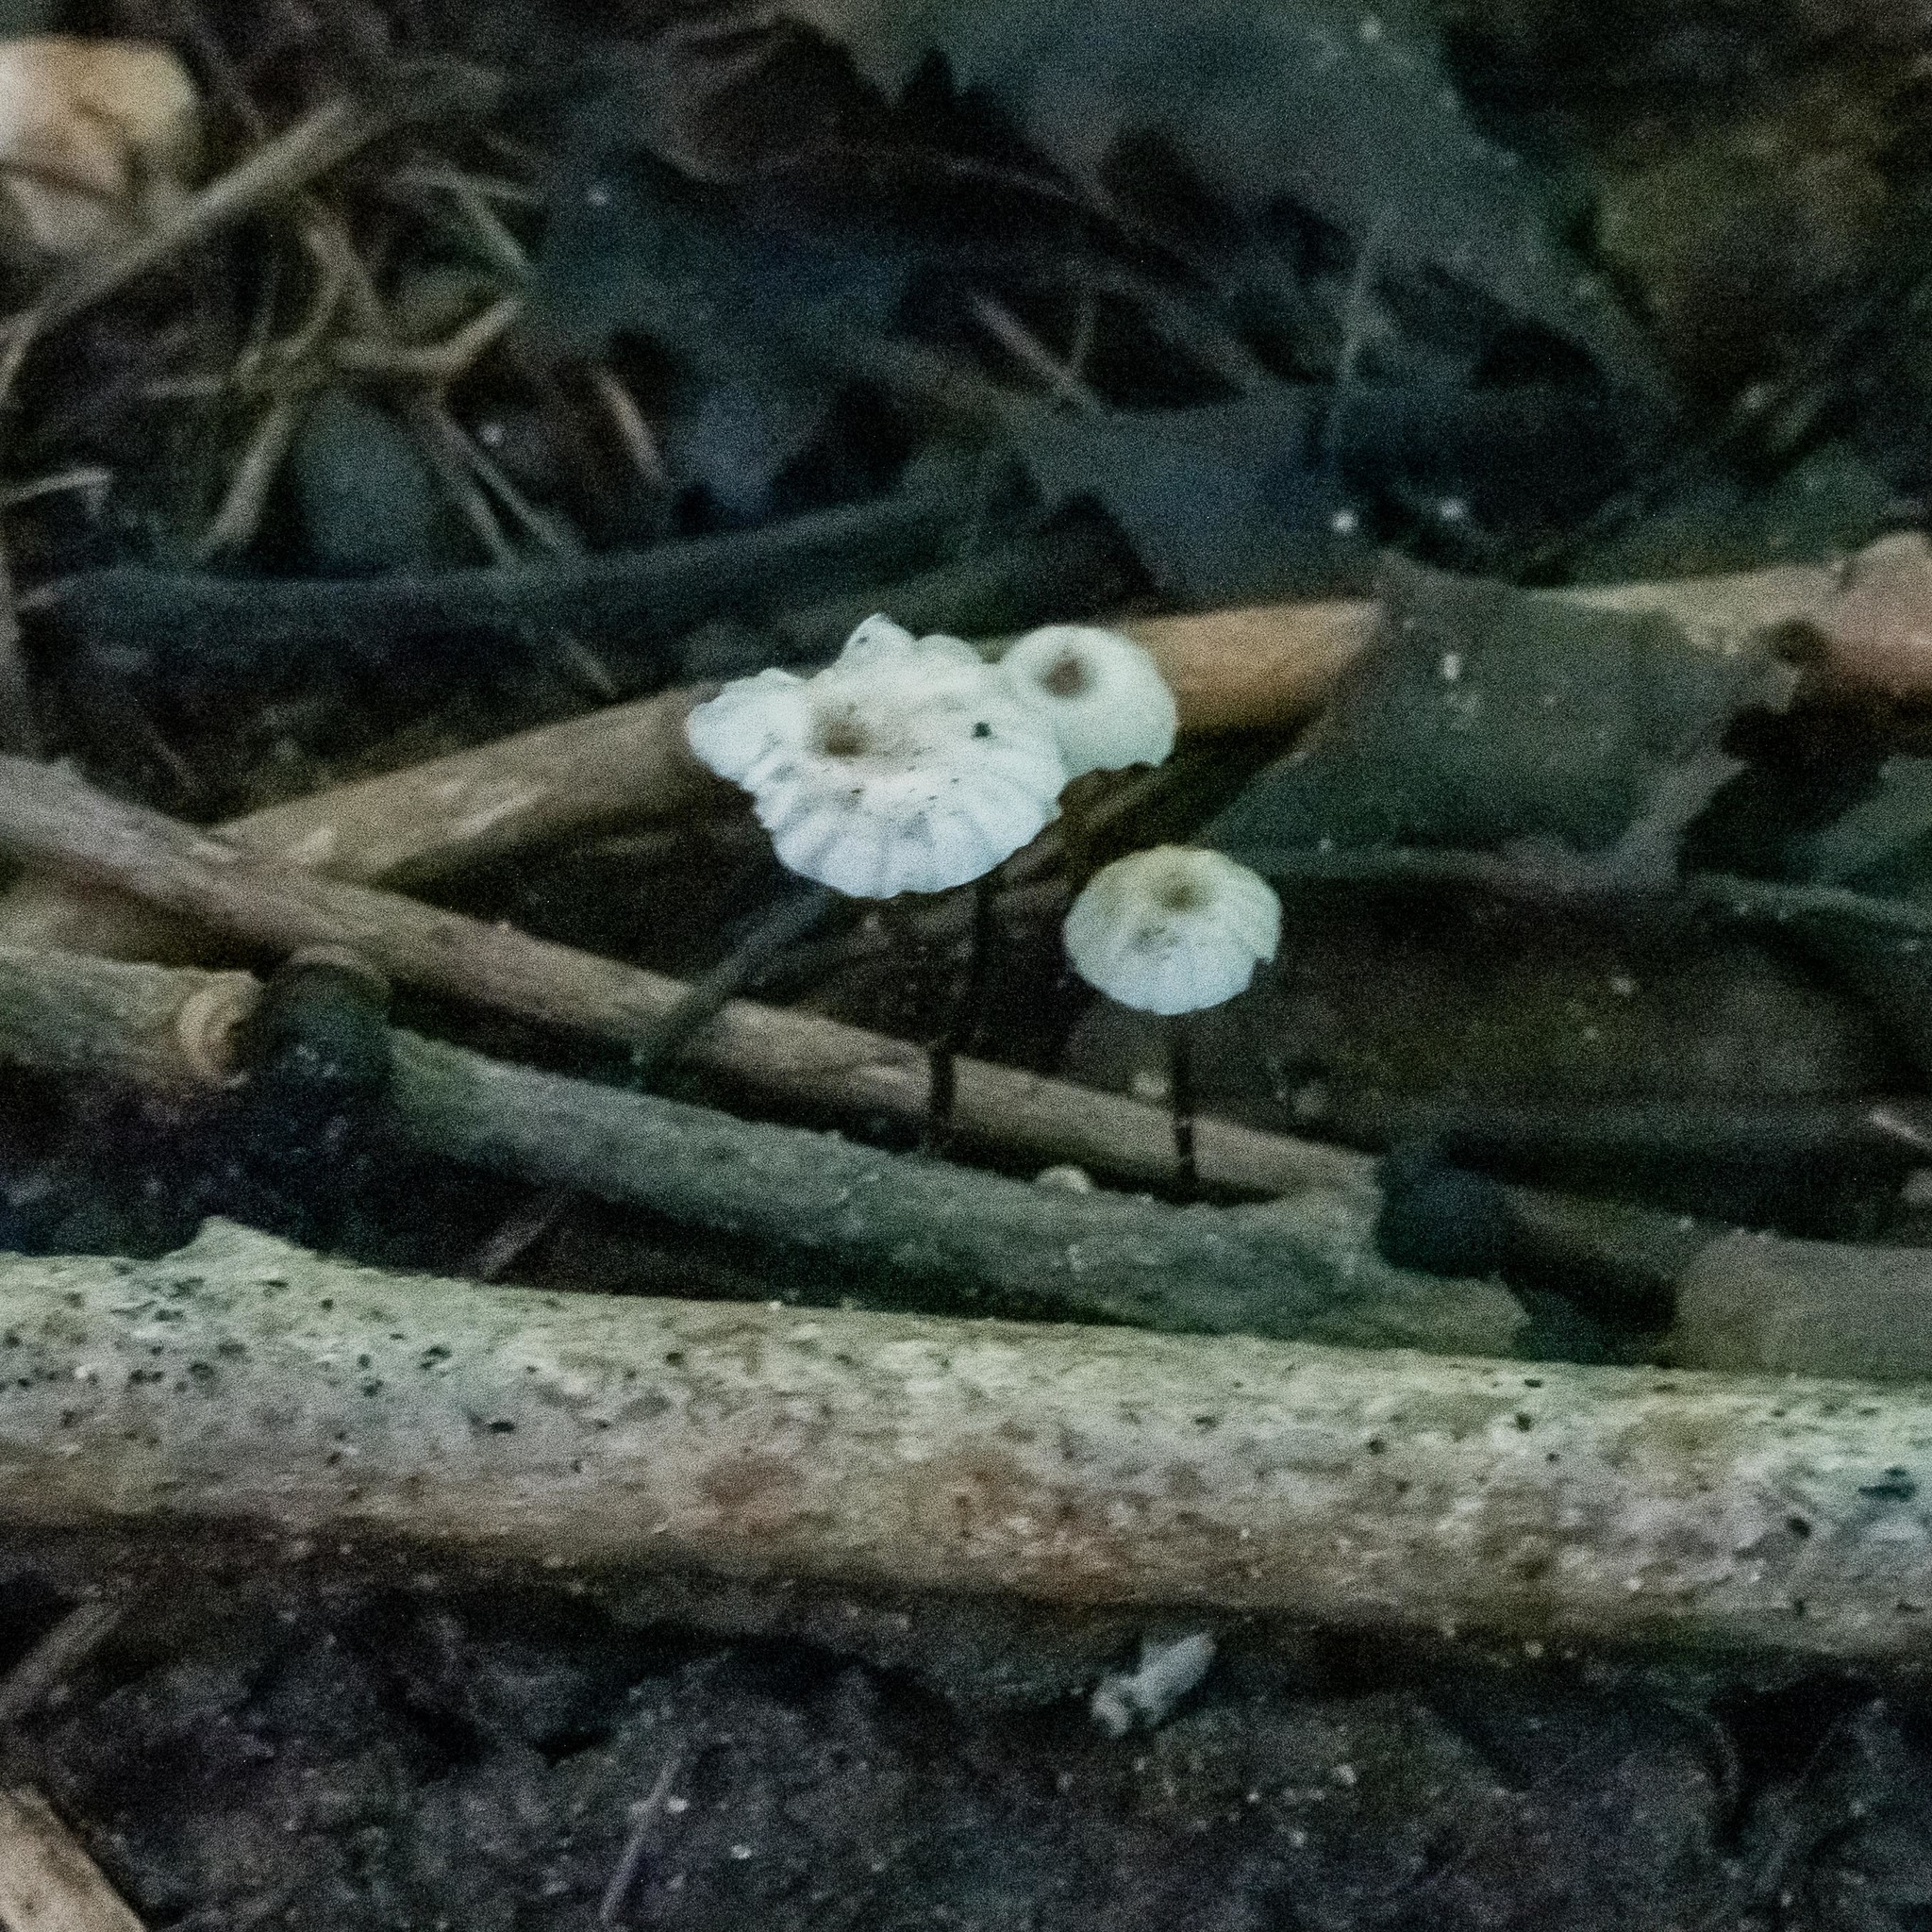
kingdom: Fungi
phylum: Basidiomycota
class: Agaricomycetes
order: Agaricales
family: Marasmiaceae
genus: Marasmius
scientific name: Marasmius rotula
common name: Collared parachute
